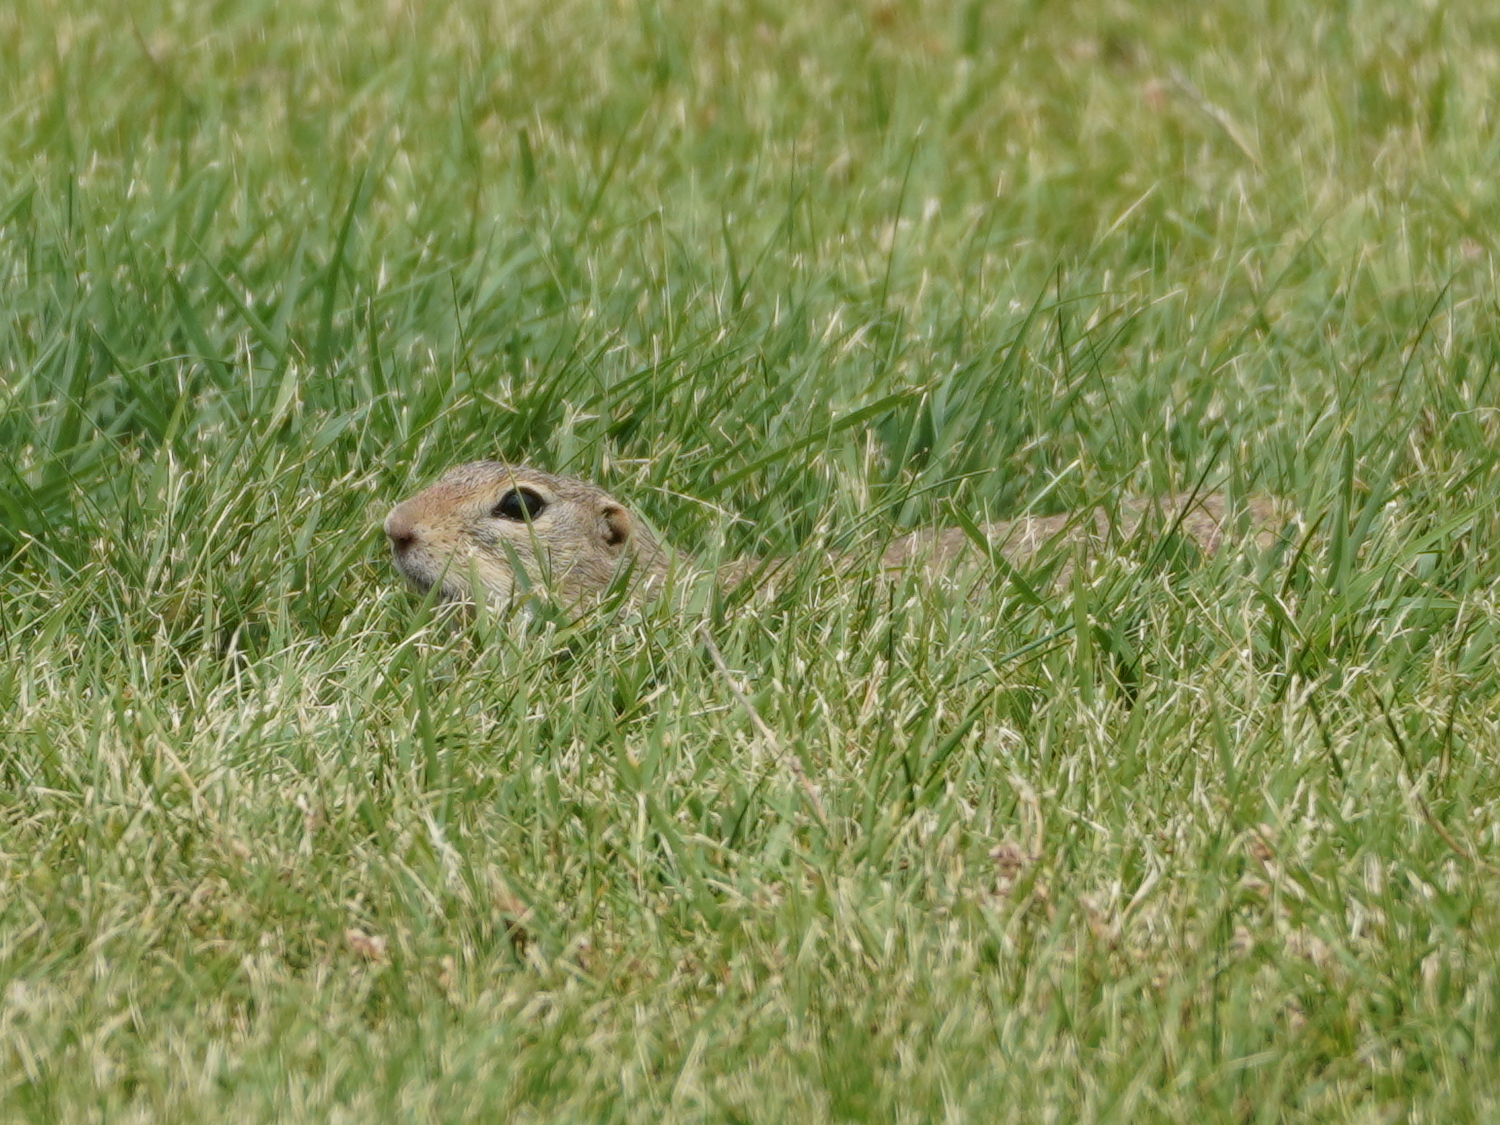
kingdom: Animalia
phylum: Chordata
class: Mammalia
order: Rodentia
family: Sciuridae
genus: Spermophilus
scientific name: Spermophilus citellus
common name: European ground squirrel
